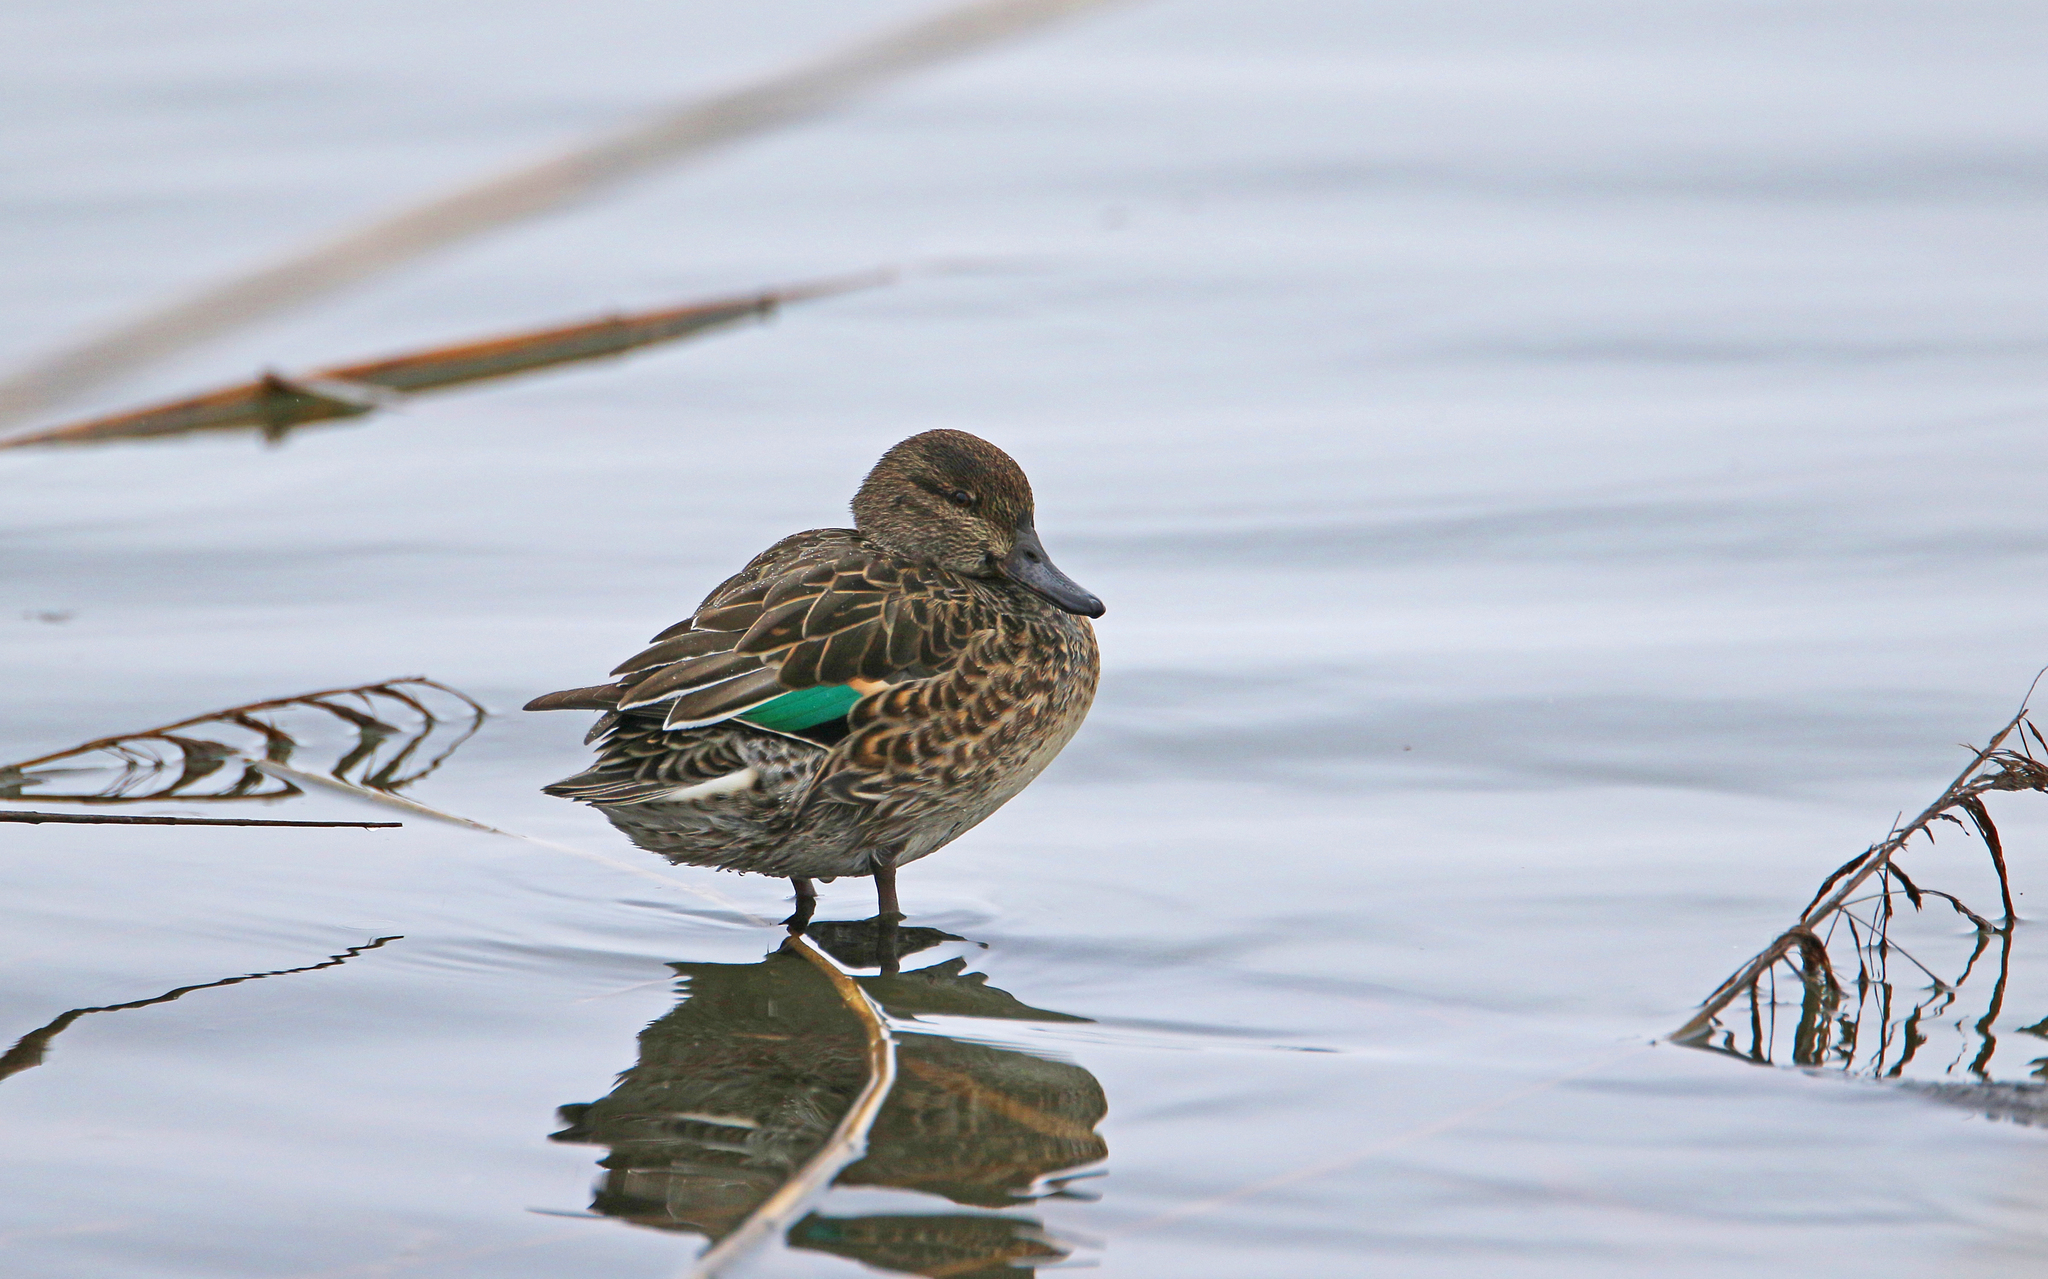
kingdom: Animalia
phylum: Chordata
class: Aves
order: Anseriformes
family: Anatidae
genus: Anas
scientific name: Anas crecca
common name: Eurasian teal
